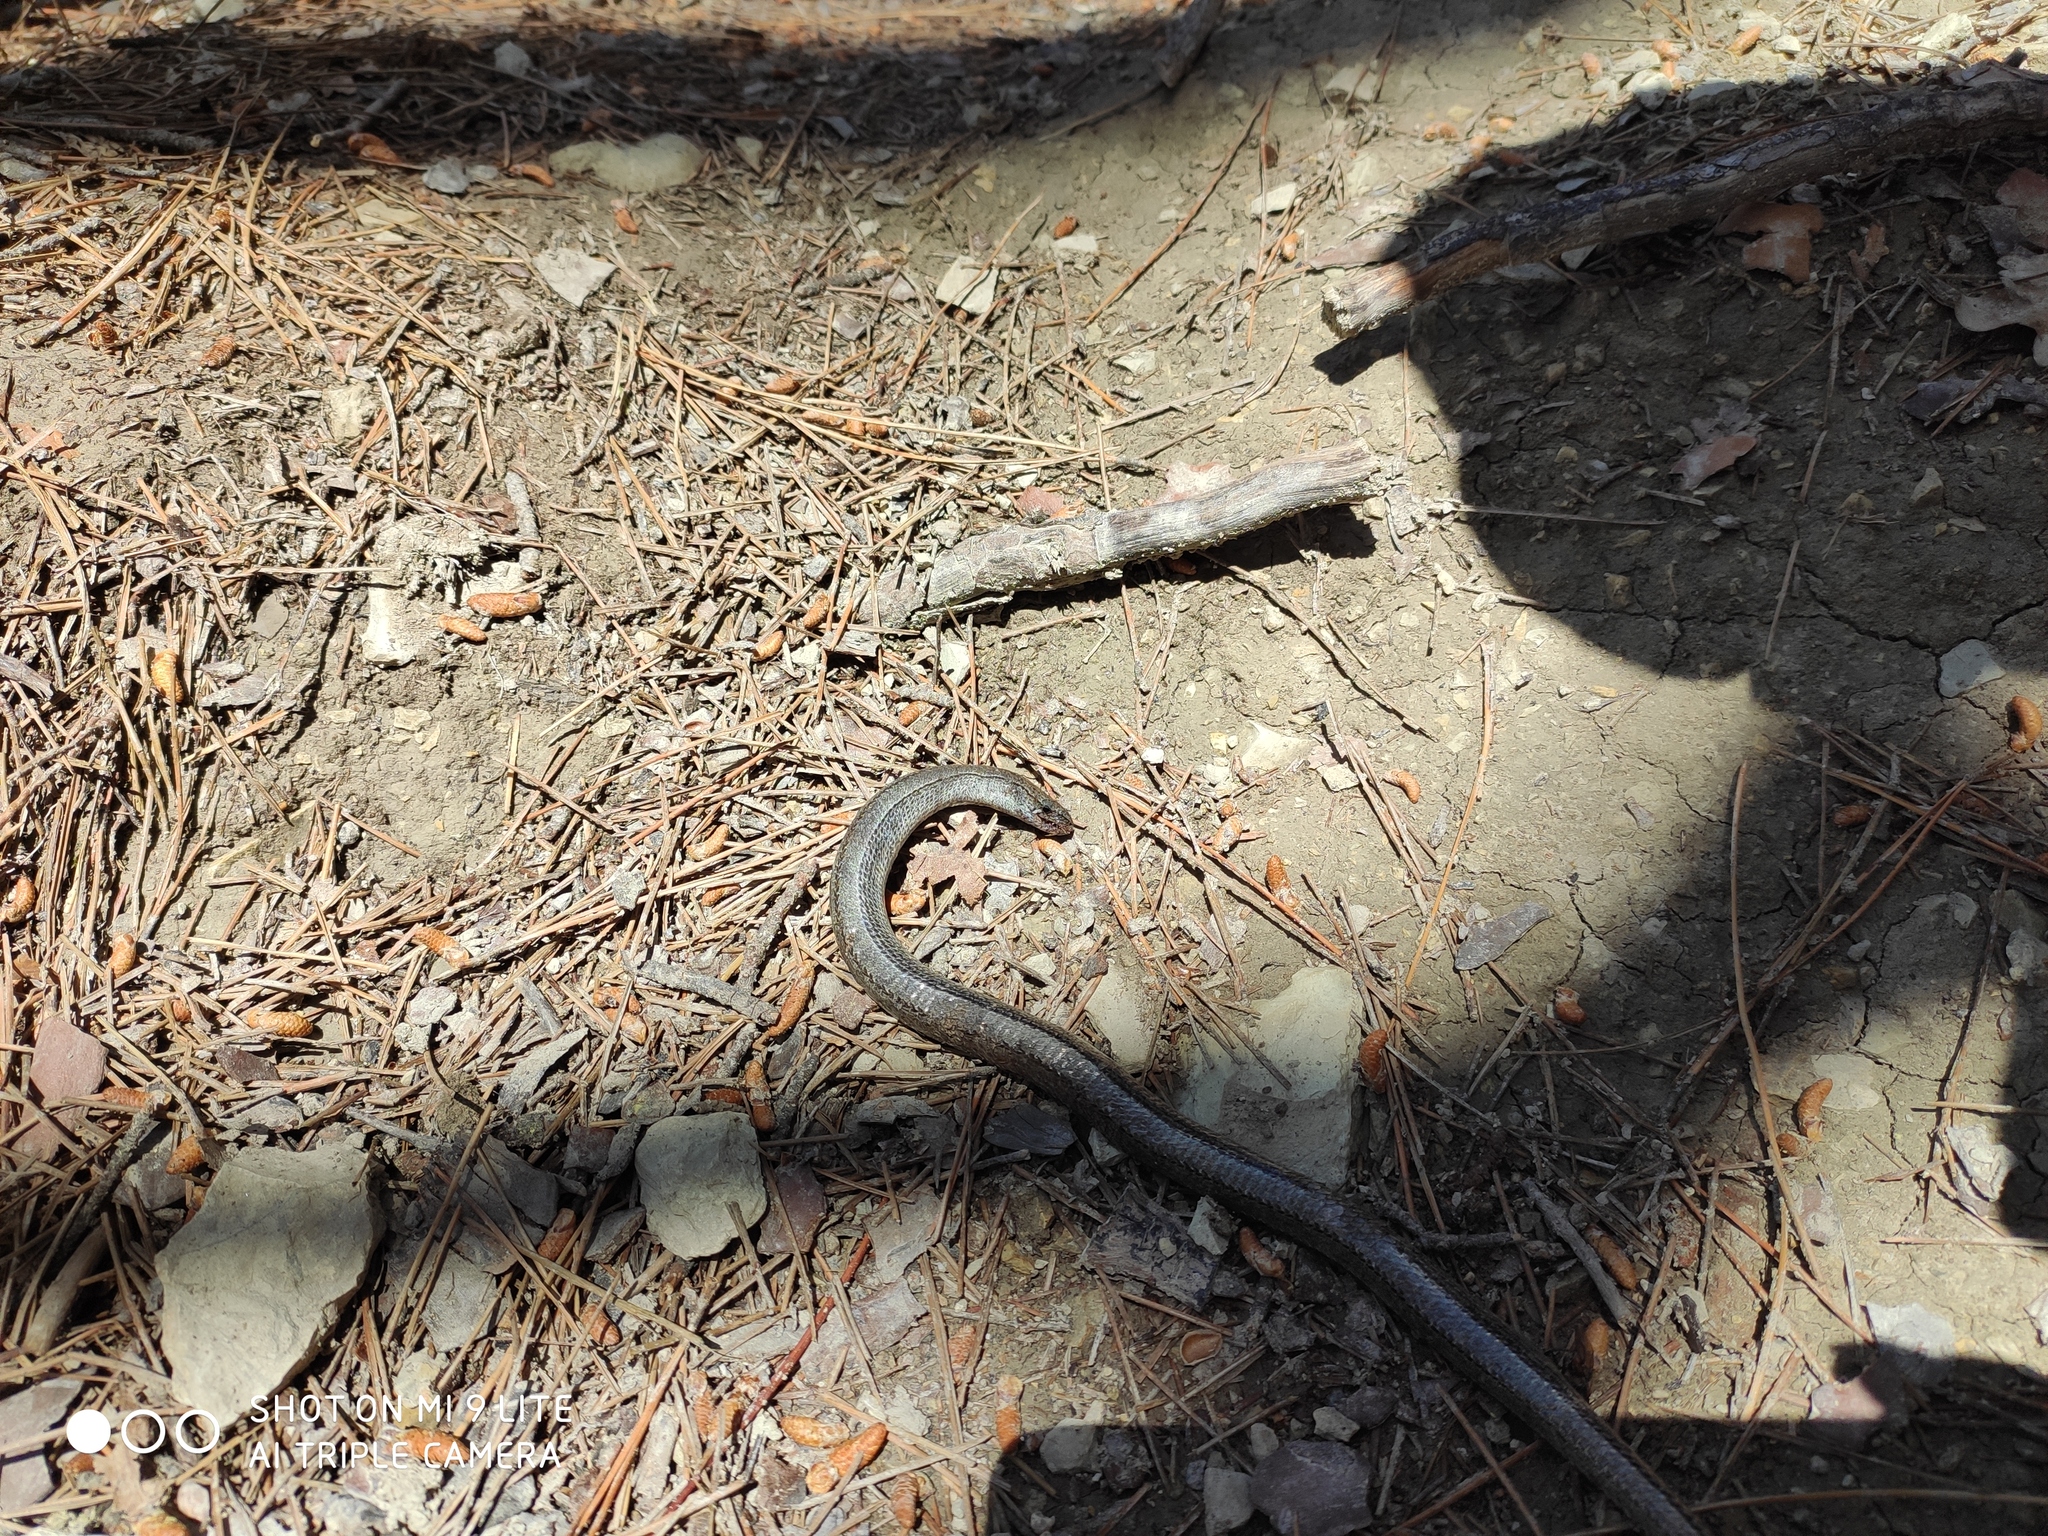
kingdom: Animalia
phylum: Chordata
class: Squamata
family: Anguidae
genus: Anguis
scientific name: Anguis colchica
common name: Slow worm
